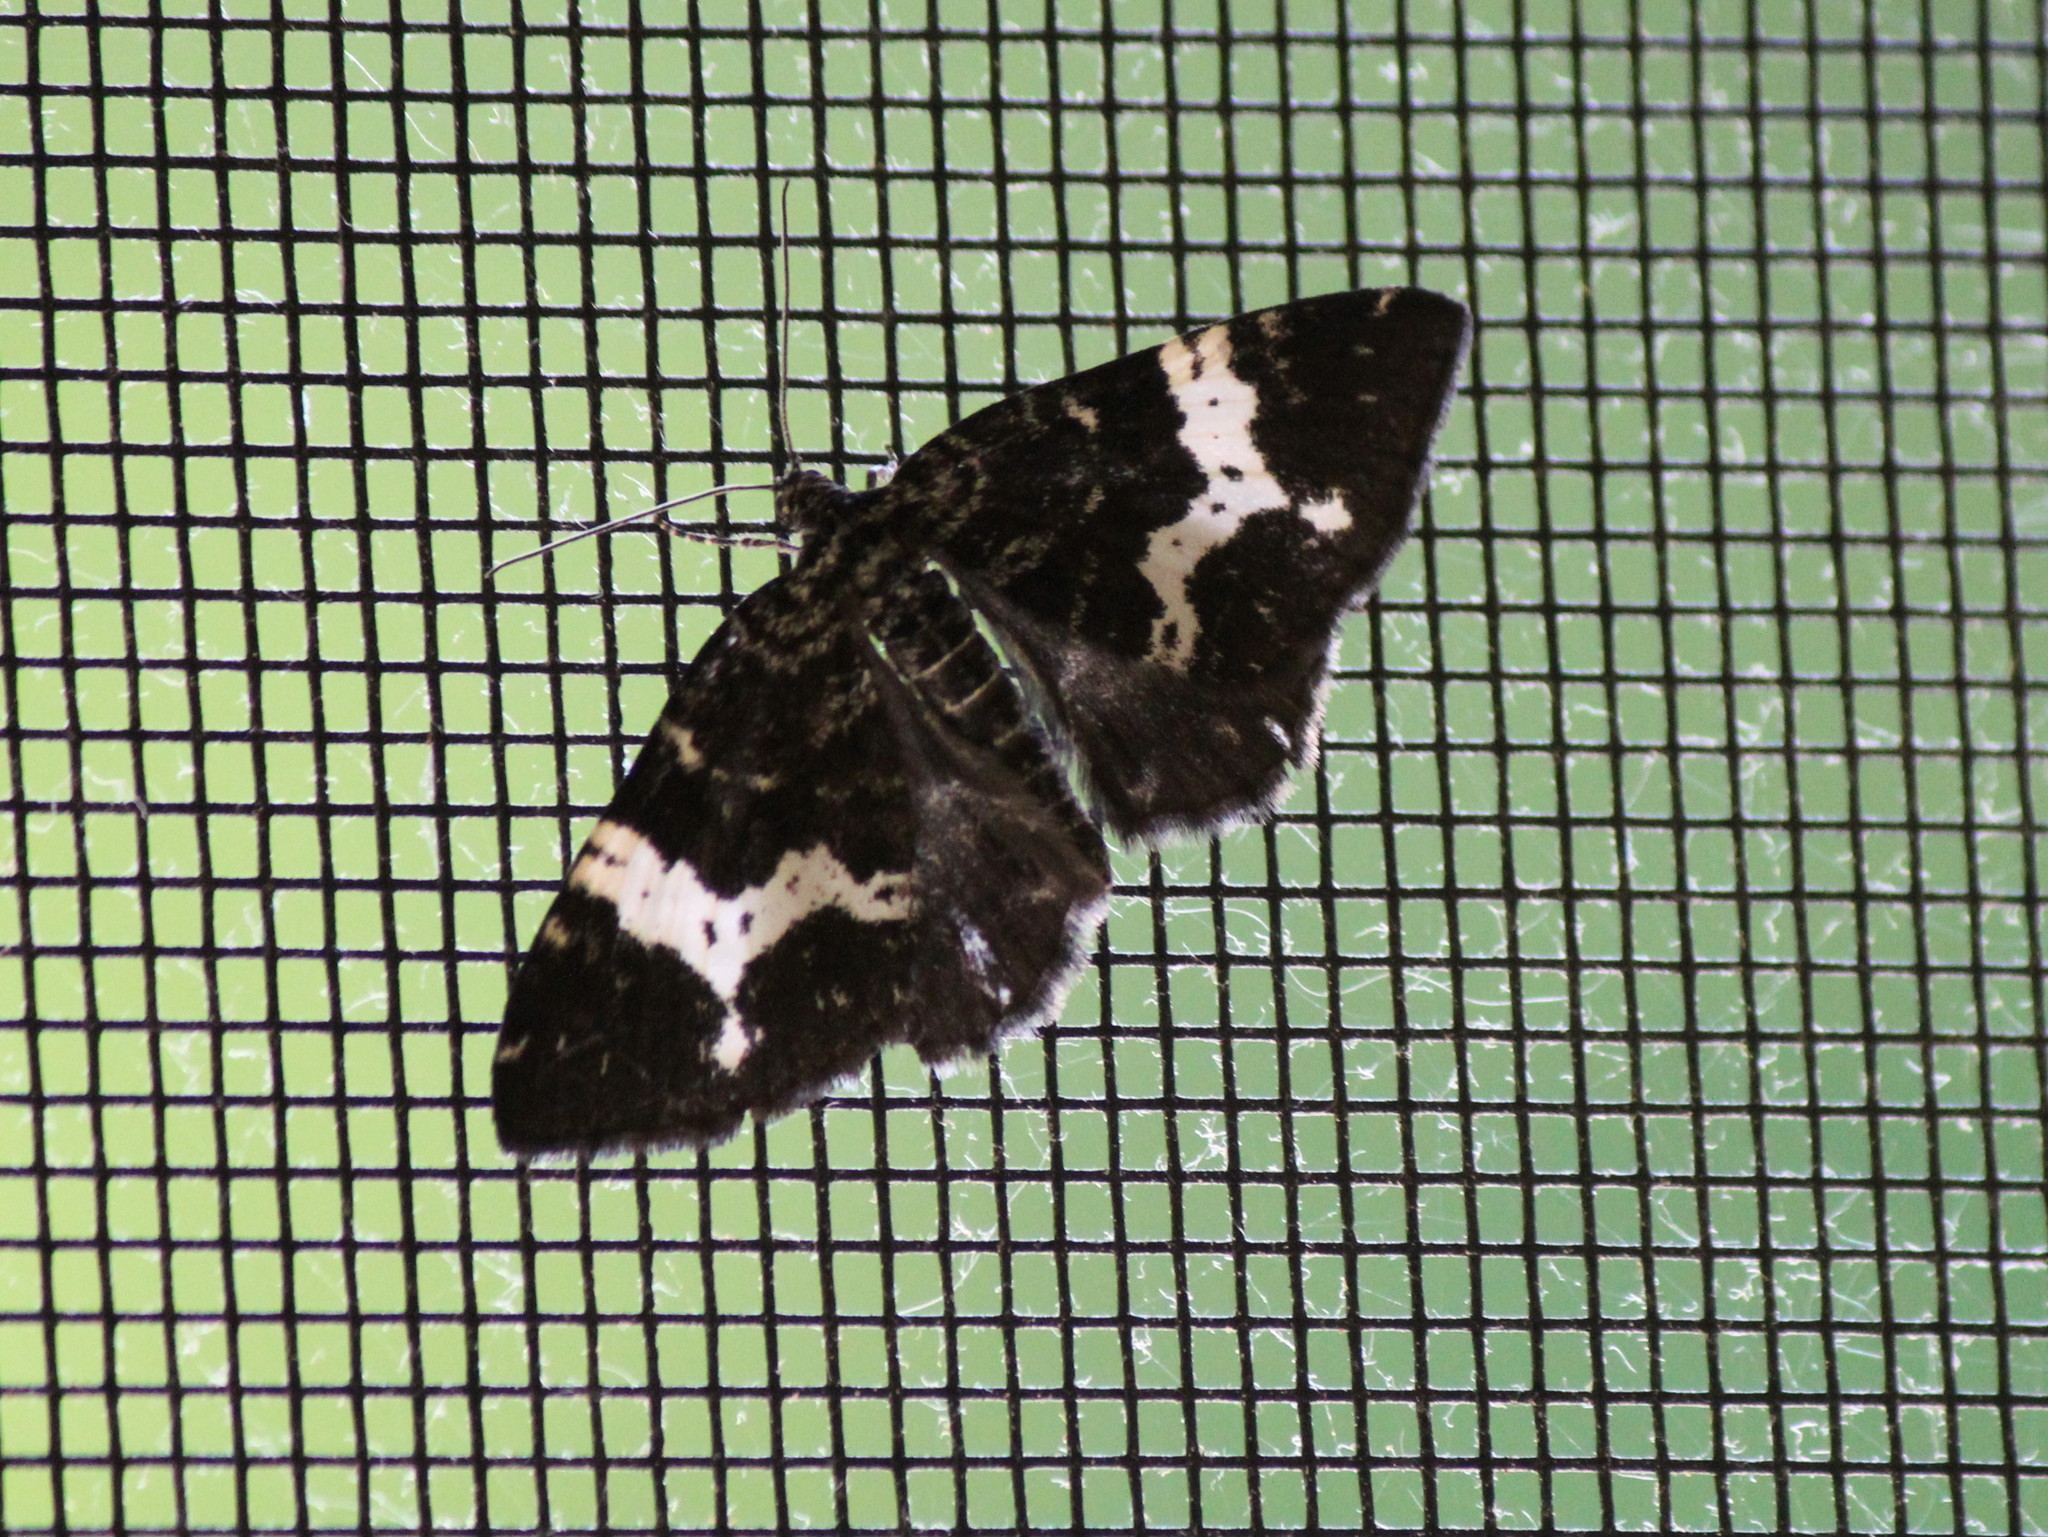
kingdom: Animalia
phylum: Arthropoda
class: Insecta
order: Lepidoptera
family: Geometridae
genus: Rheumaptera
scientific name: Rheumaptera
